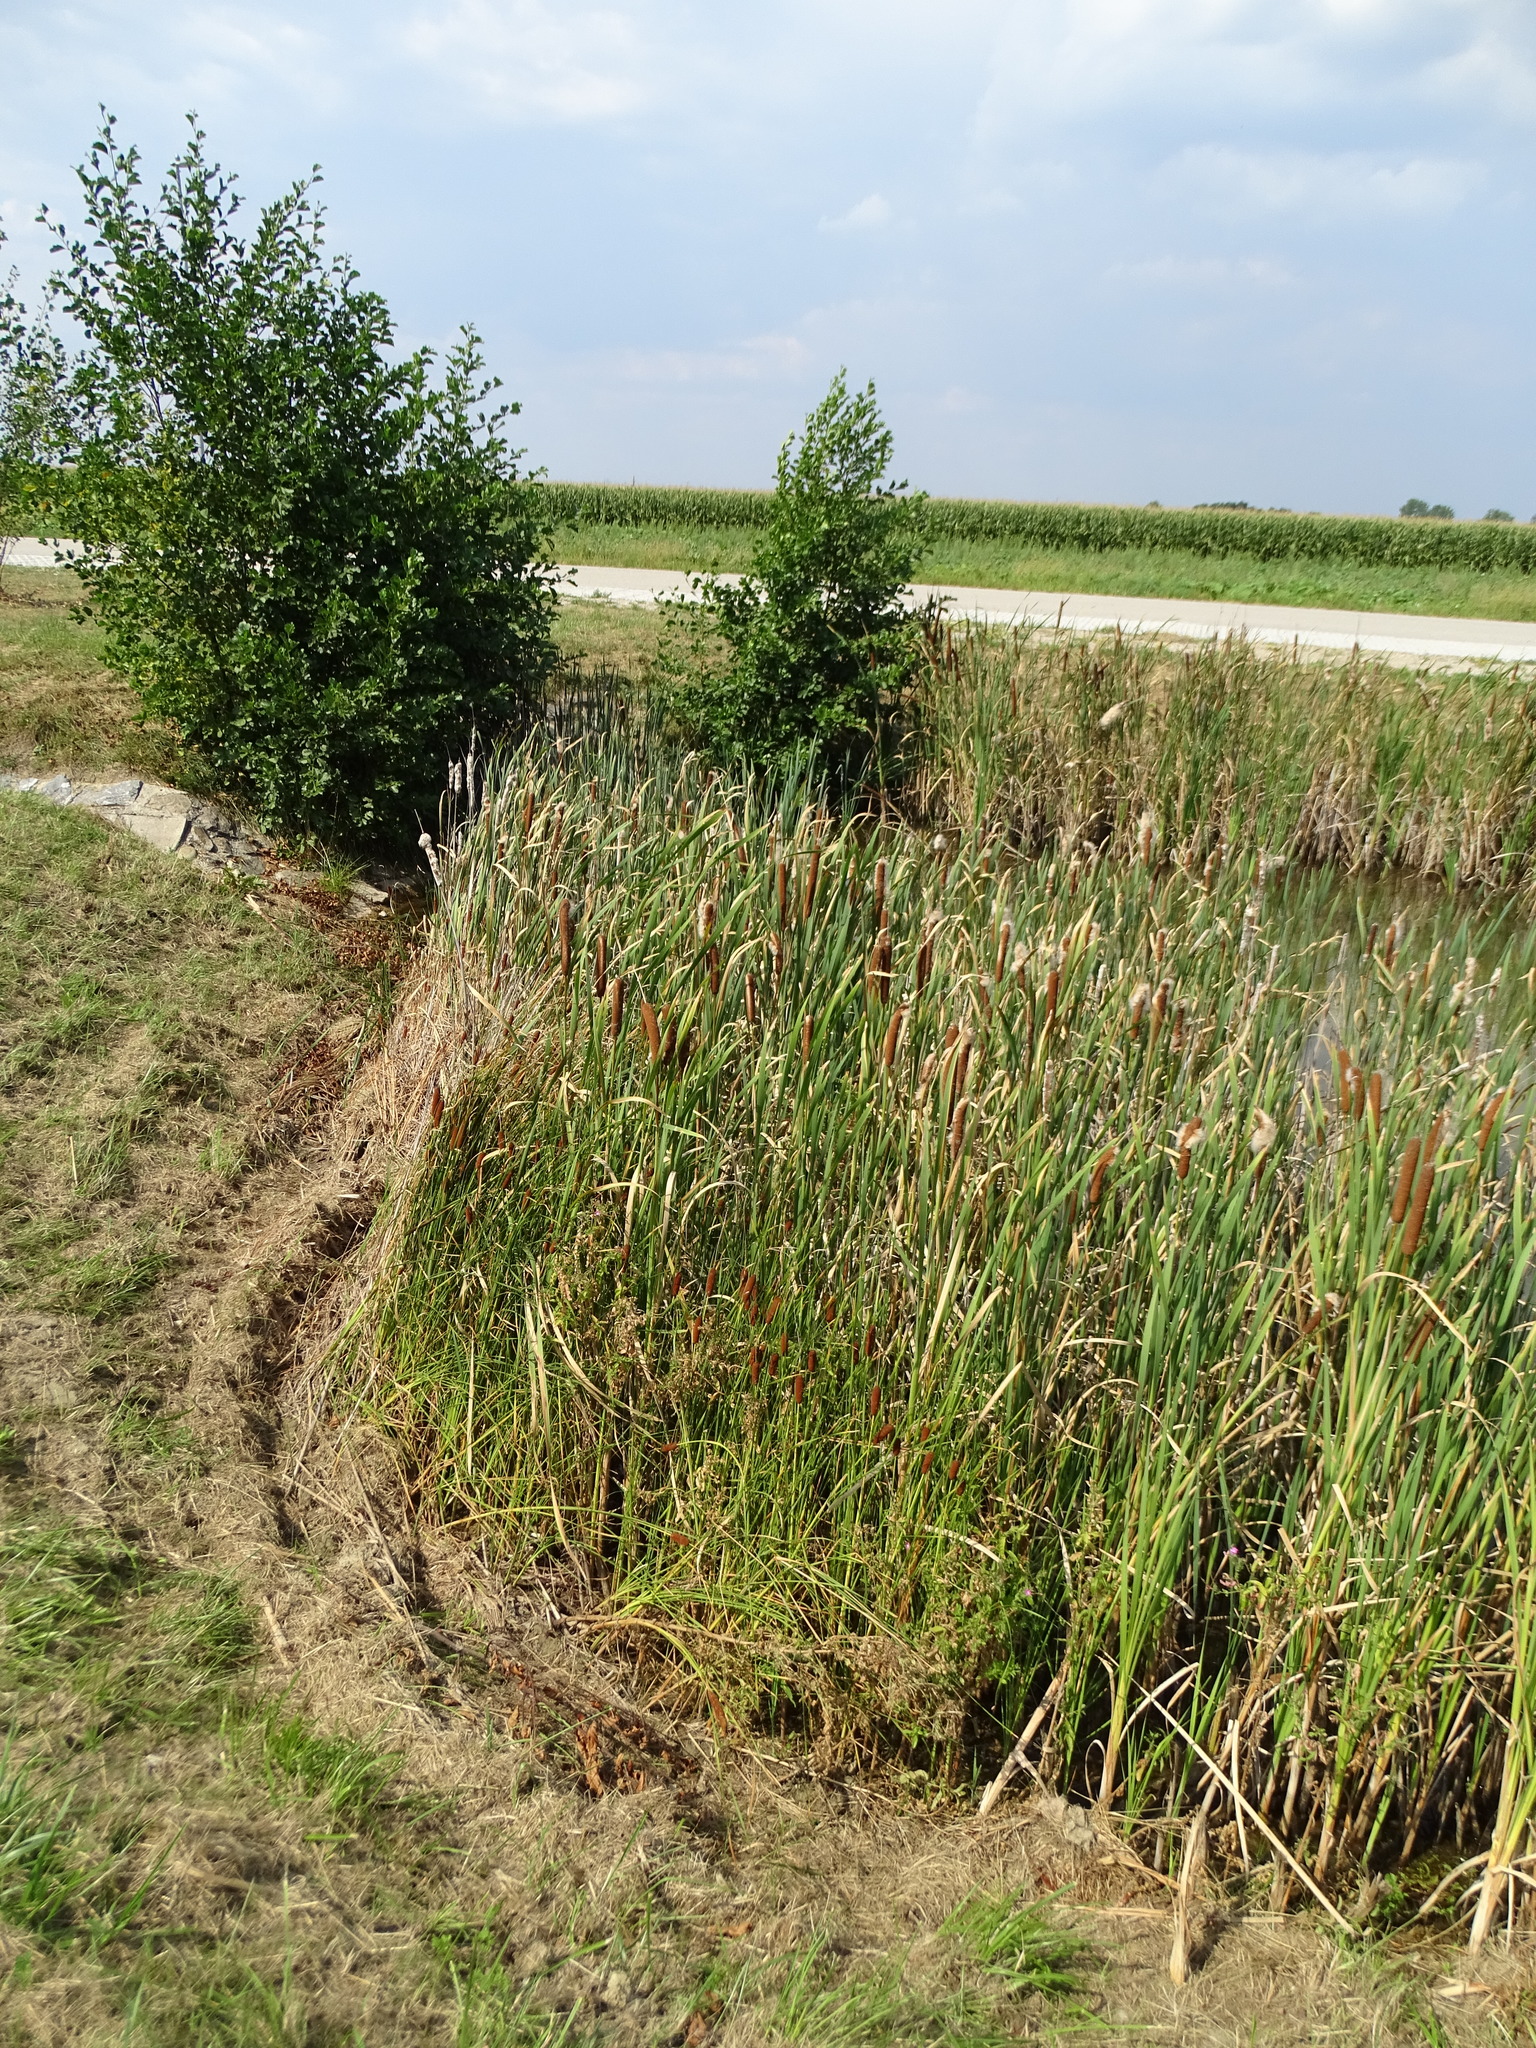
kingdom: Plantae
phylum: Tracheophyta
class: Liliopsida
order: Poales
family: Typhaceae
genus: Typha
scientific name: Typha latifolia
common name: Broadleaf cattail
